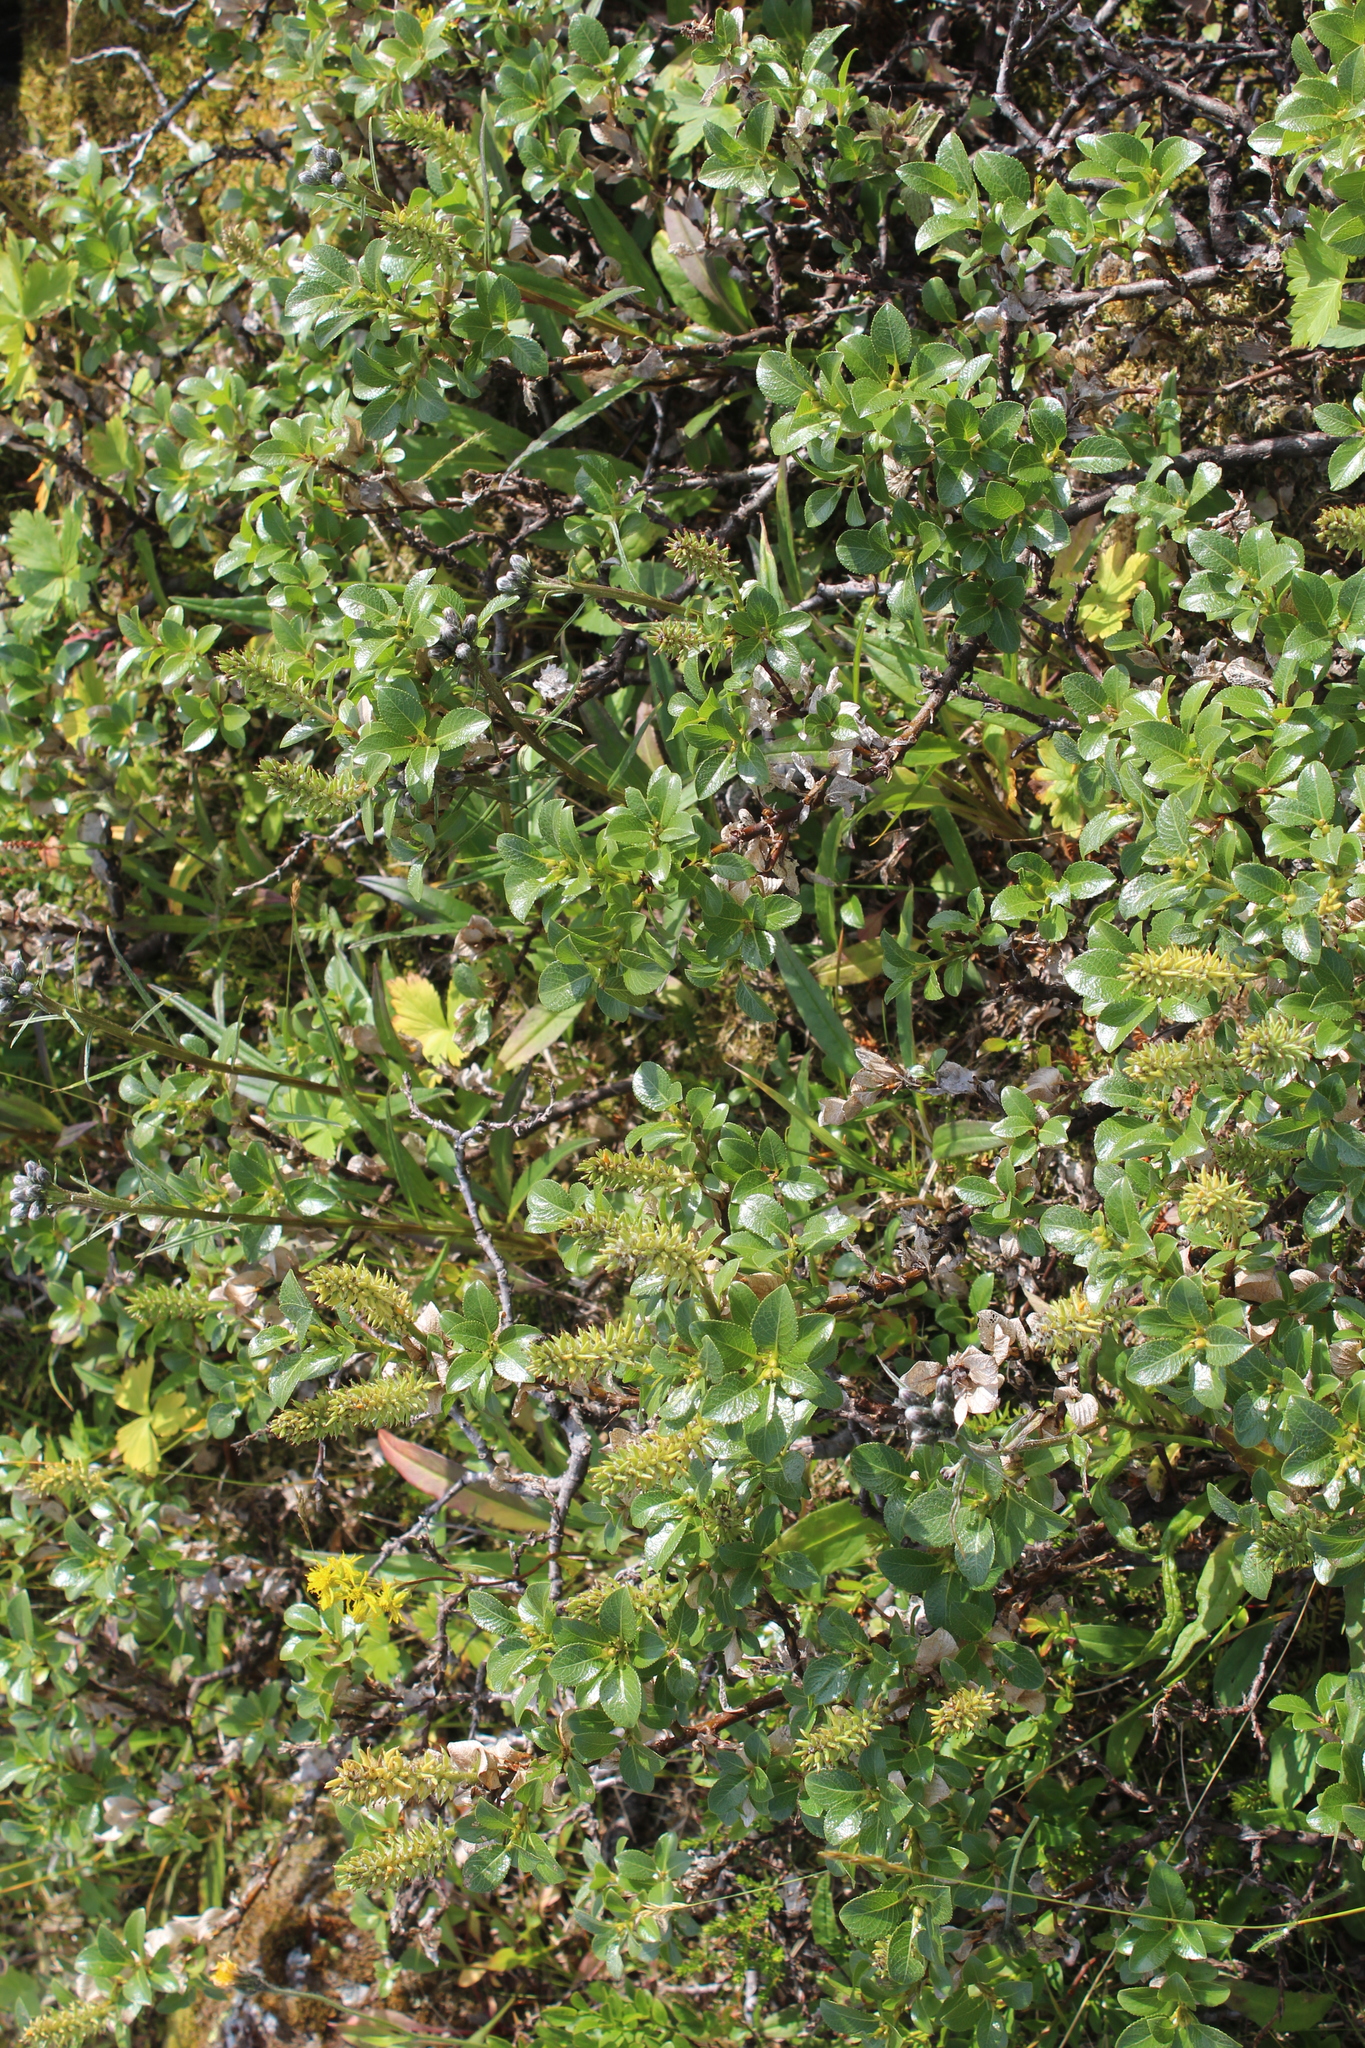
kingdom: Plantae
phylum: Tracheophyta
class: Magnoliopsida
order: Malpighiales
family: Salicaceae
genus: Salix
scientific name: Salix myrsinites
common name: Myrtle willow
